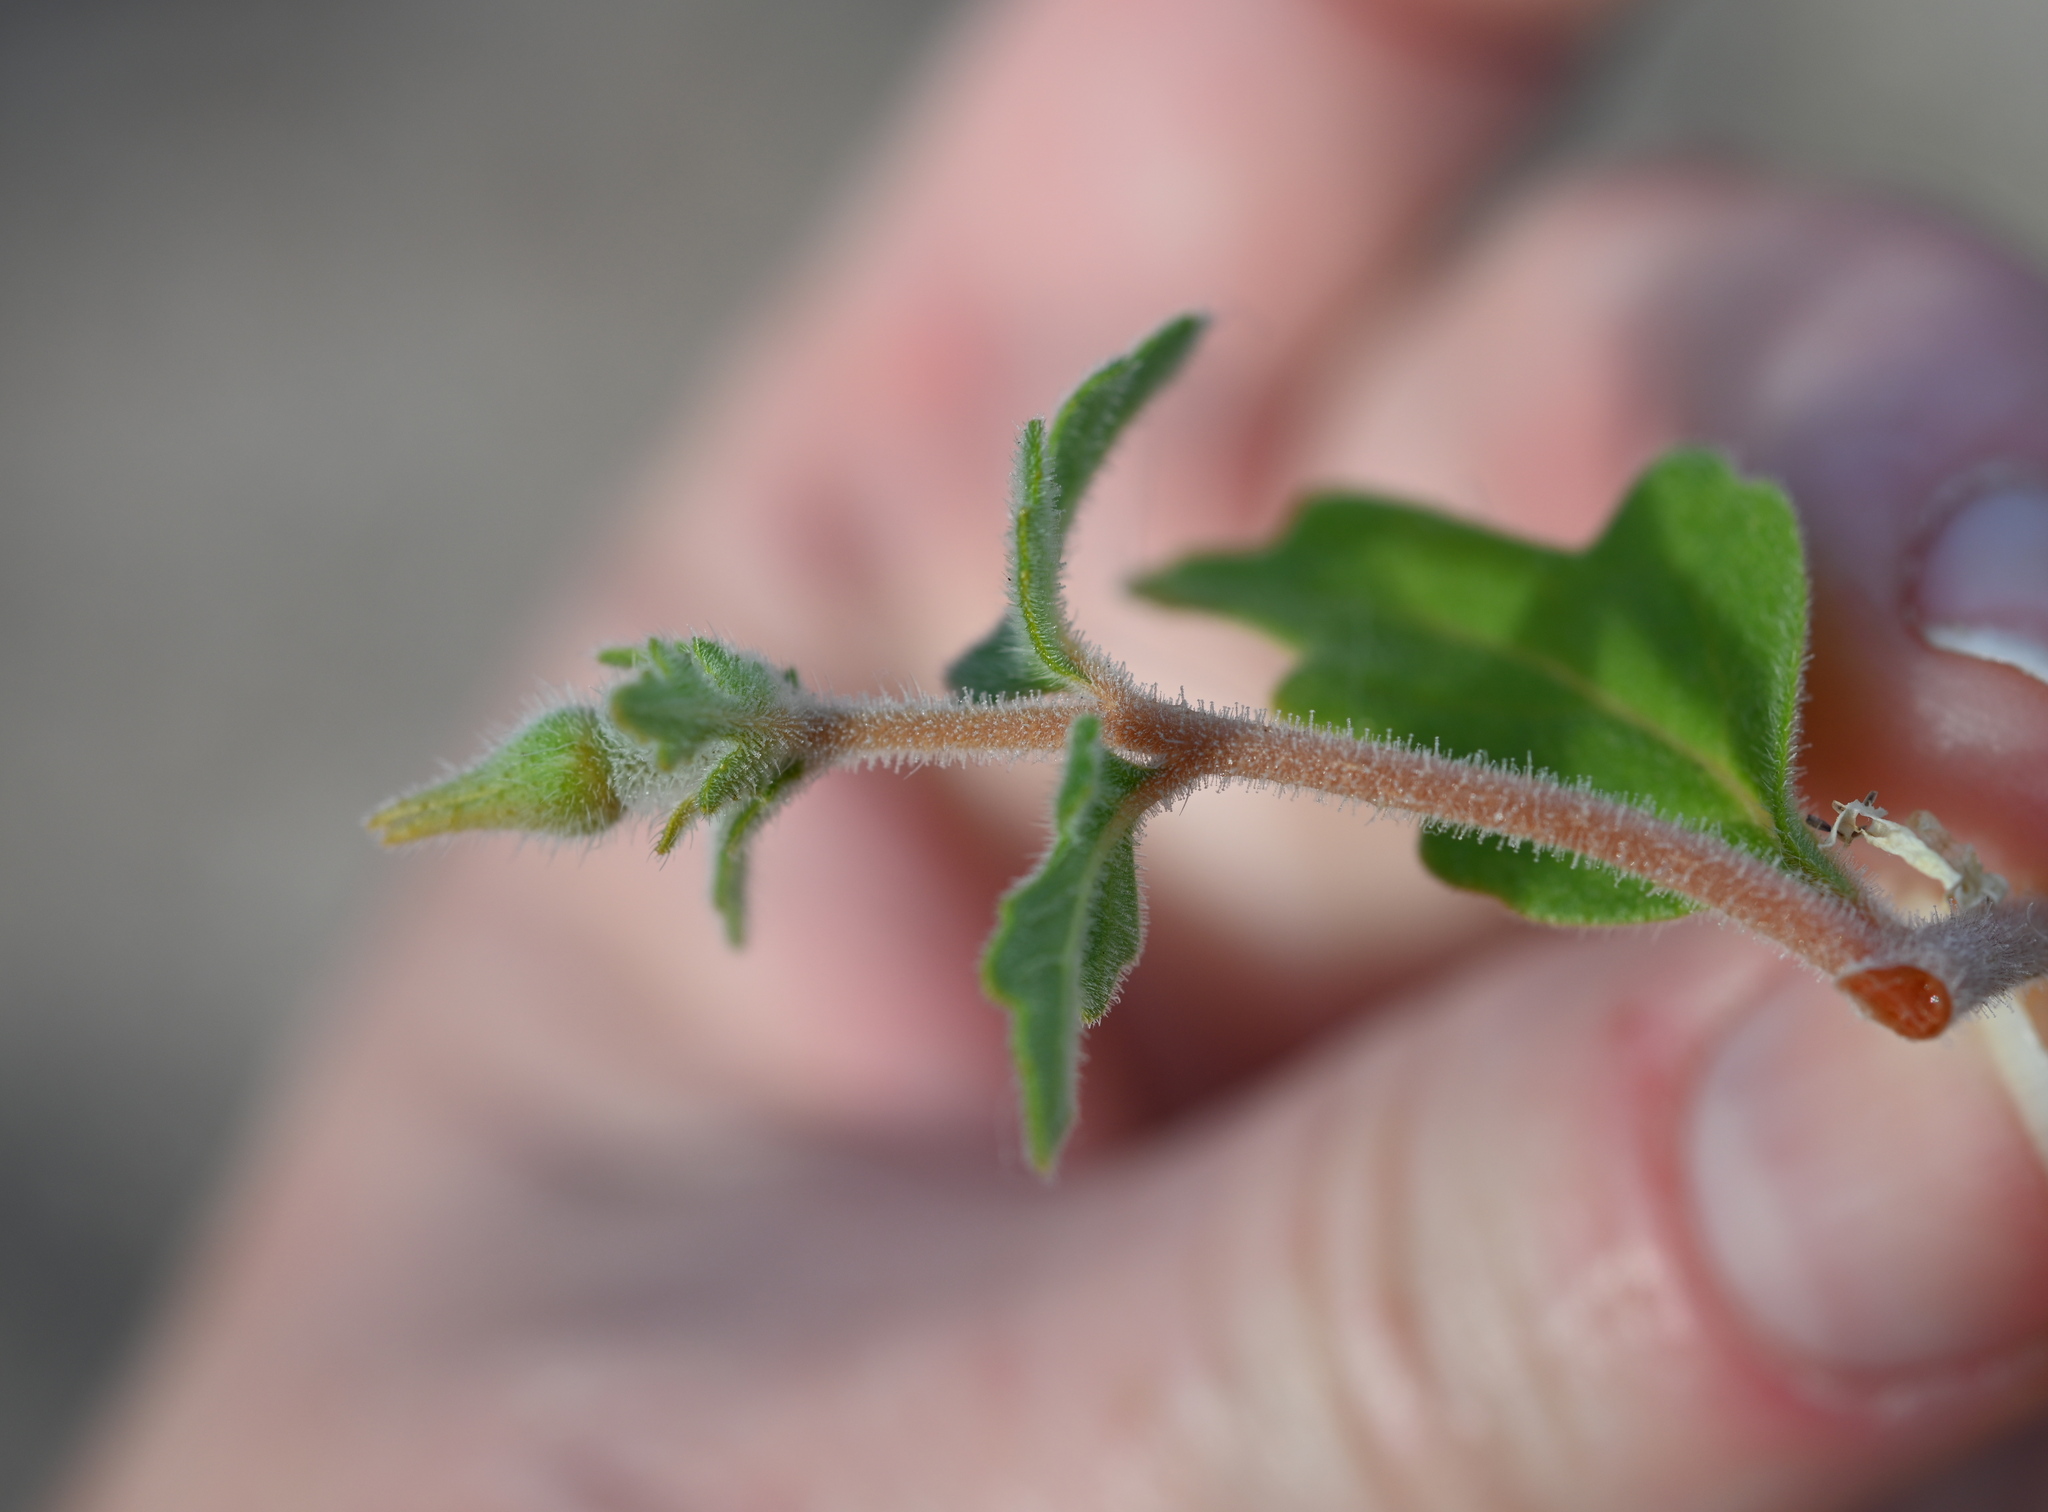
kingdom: Plantae
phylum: Tracheophyta
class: Magnoliopsida
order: Cornales
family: Loasaceae
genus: Mentzelia
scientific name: Mentzelia adhaerens
